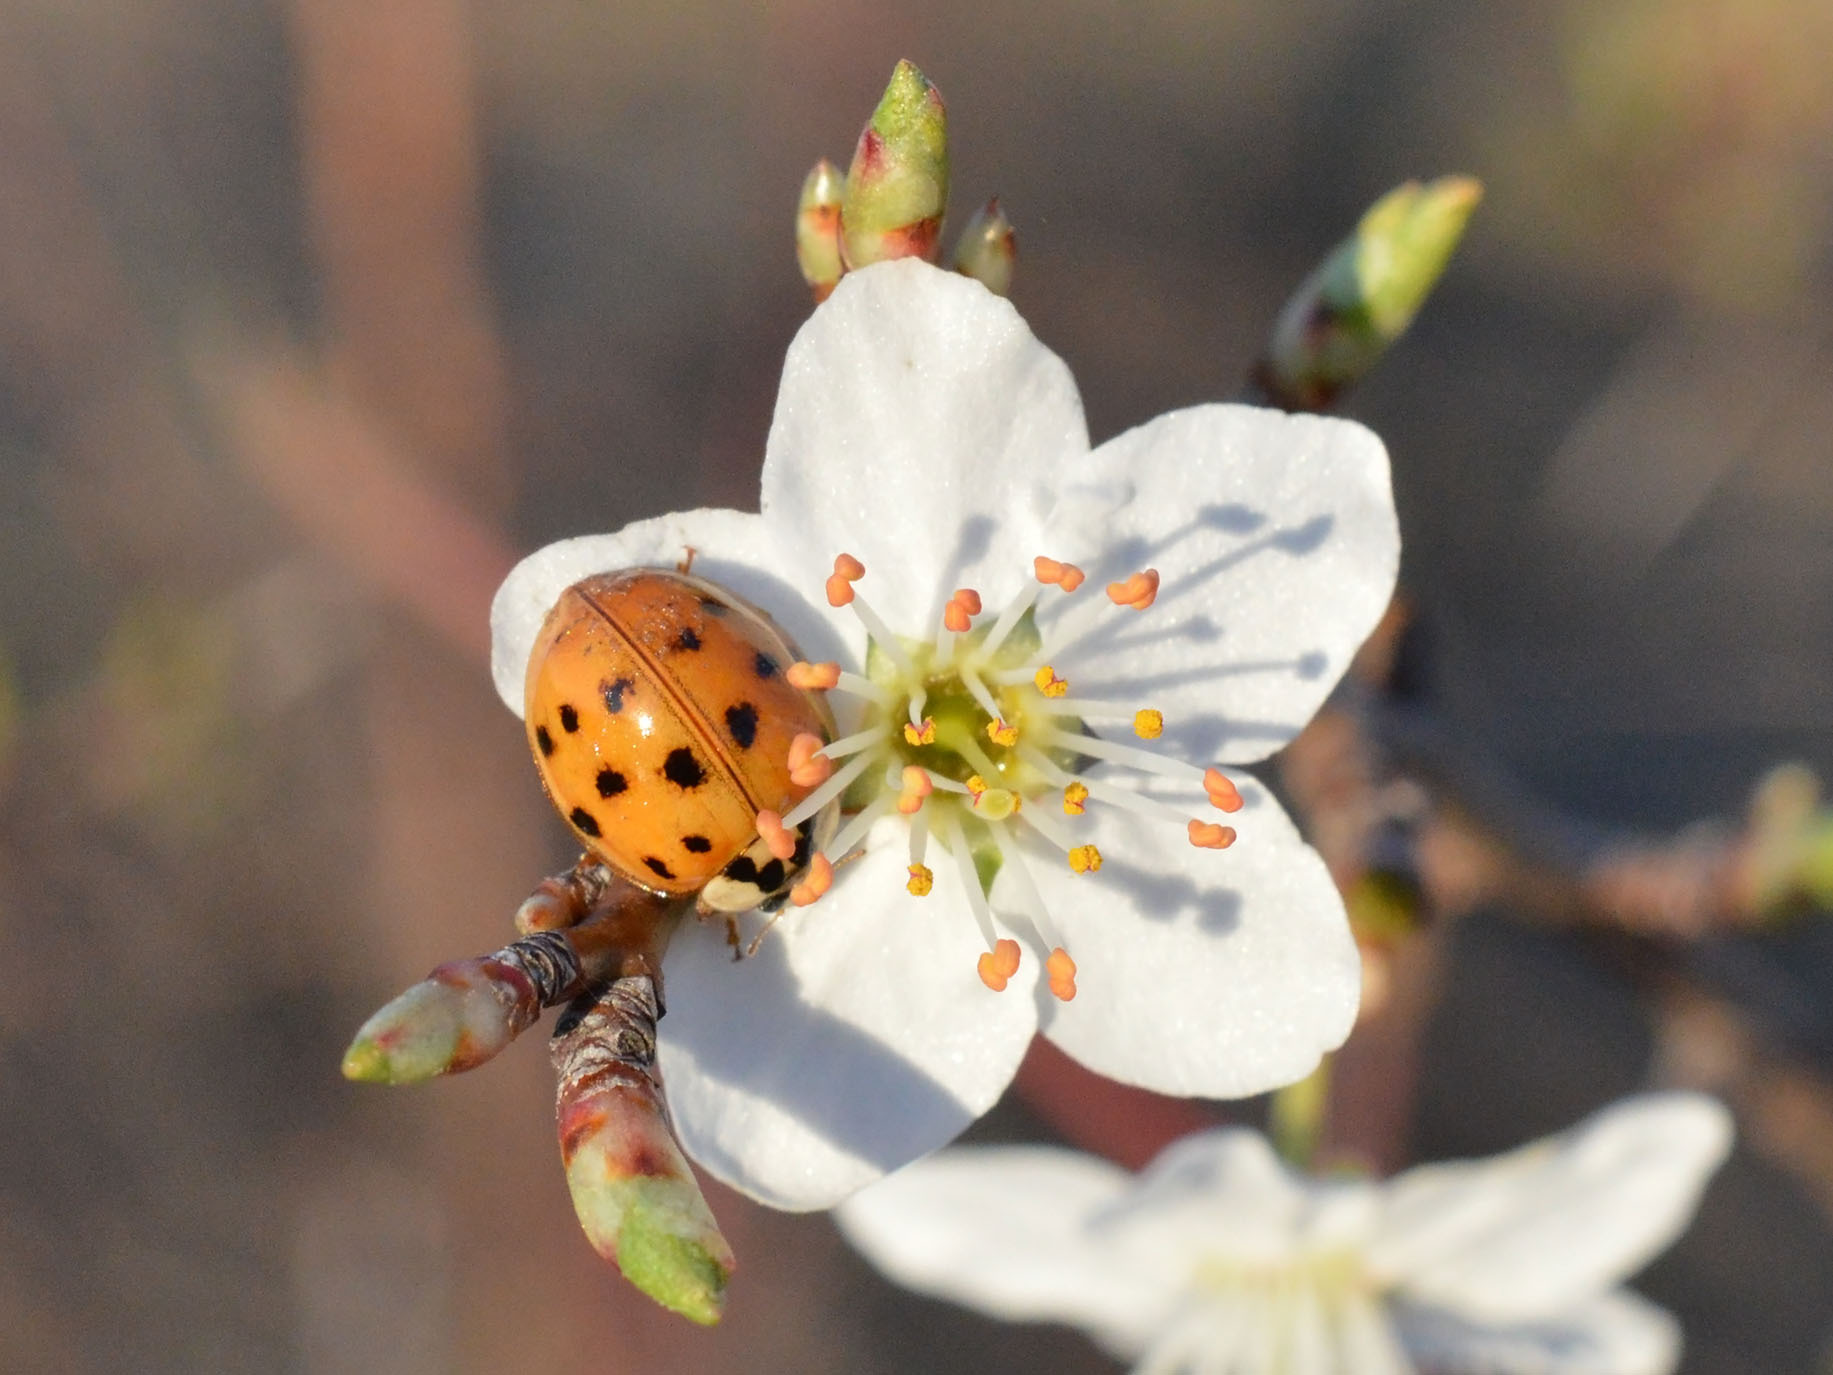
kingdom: Animalia
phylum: Arthropoda
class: Insecta
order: Coleoptera
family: Coccinellidae
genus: Harmonia
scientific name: Harmonia axyridis
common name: Harlequin ladybird
